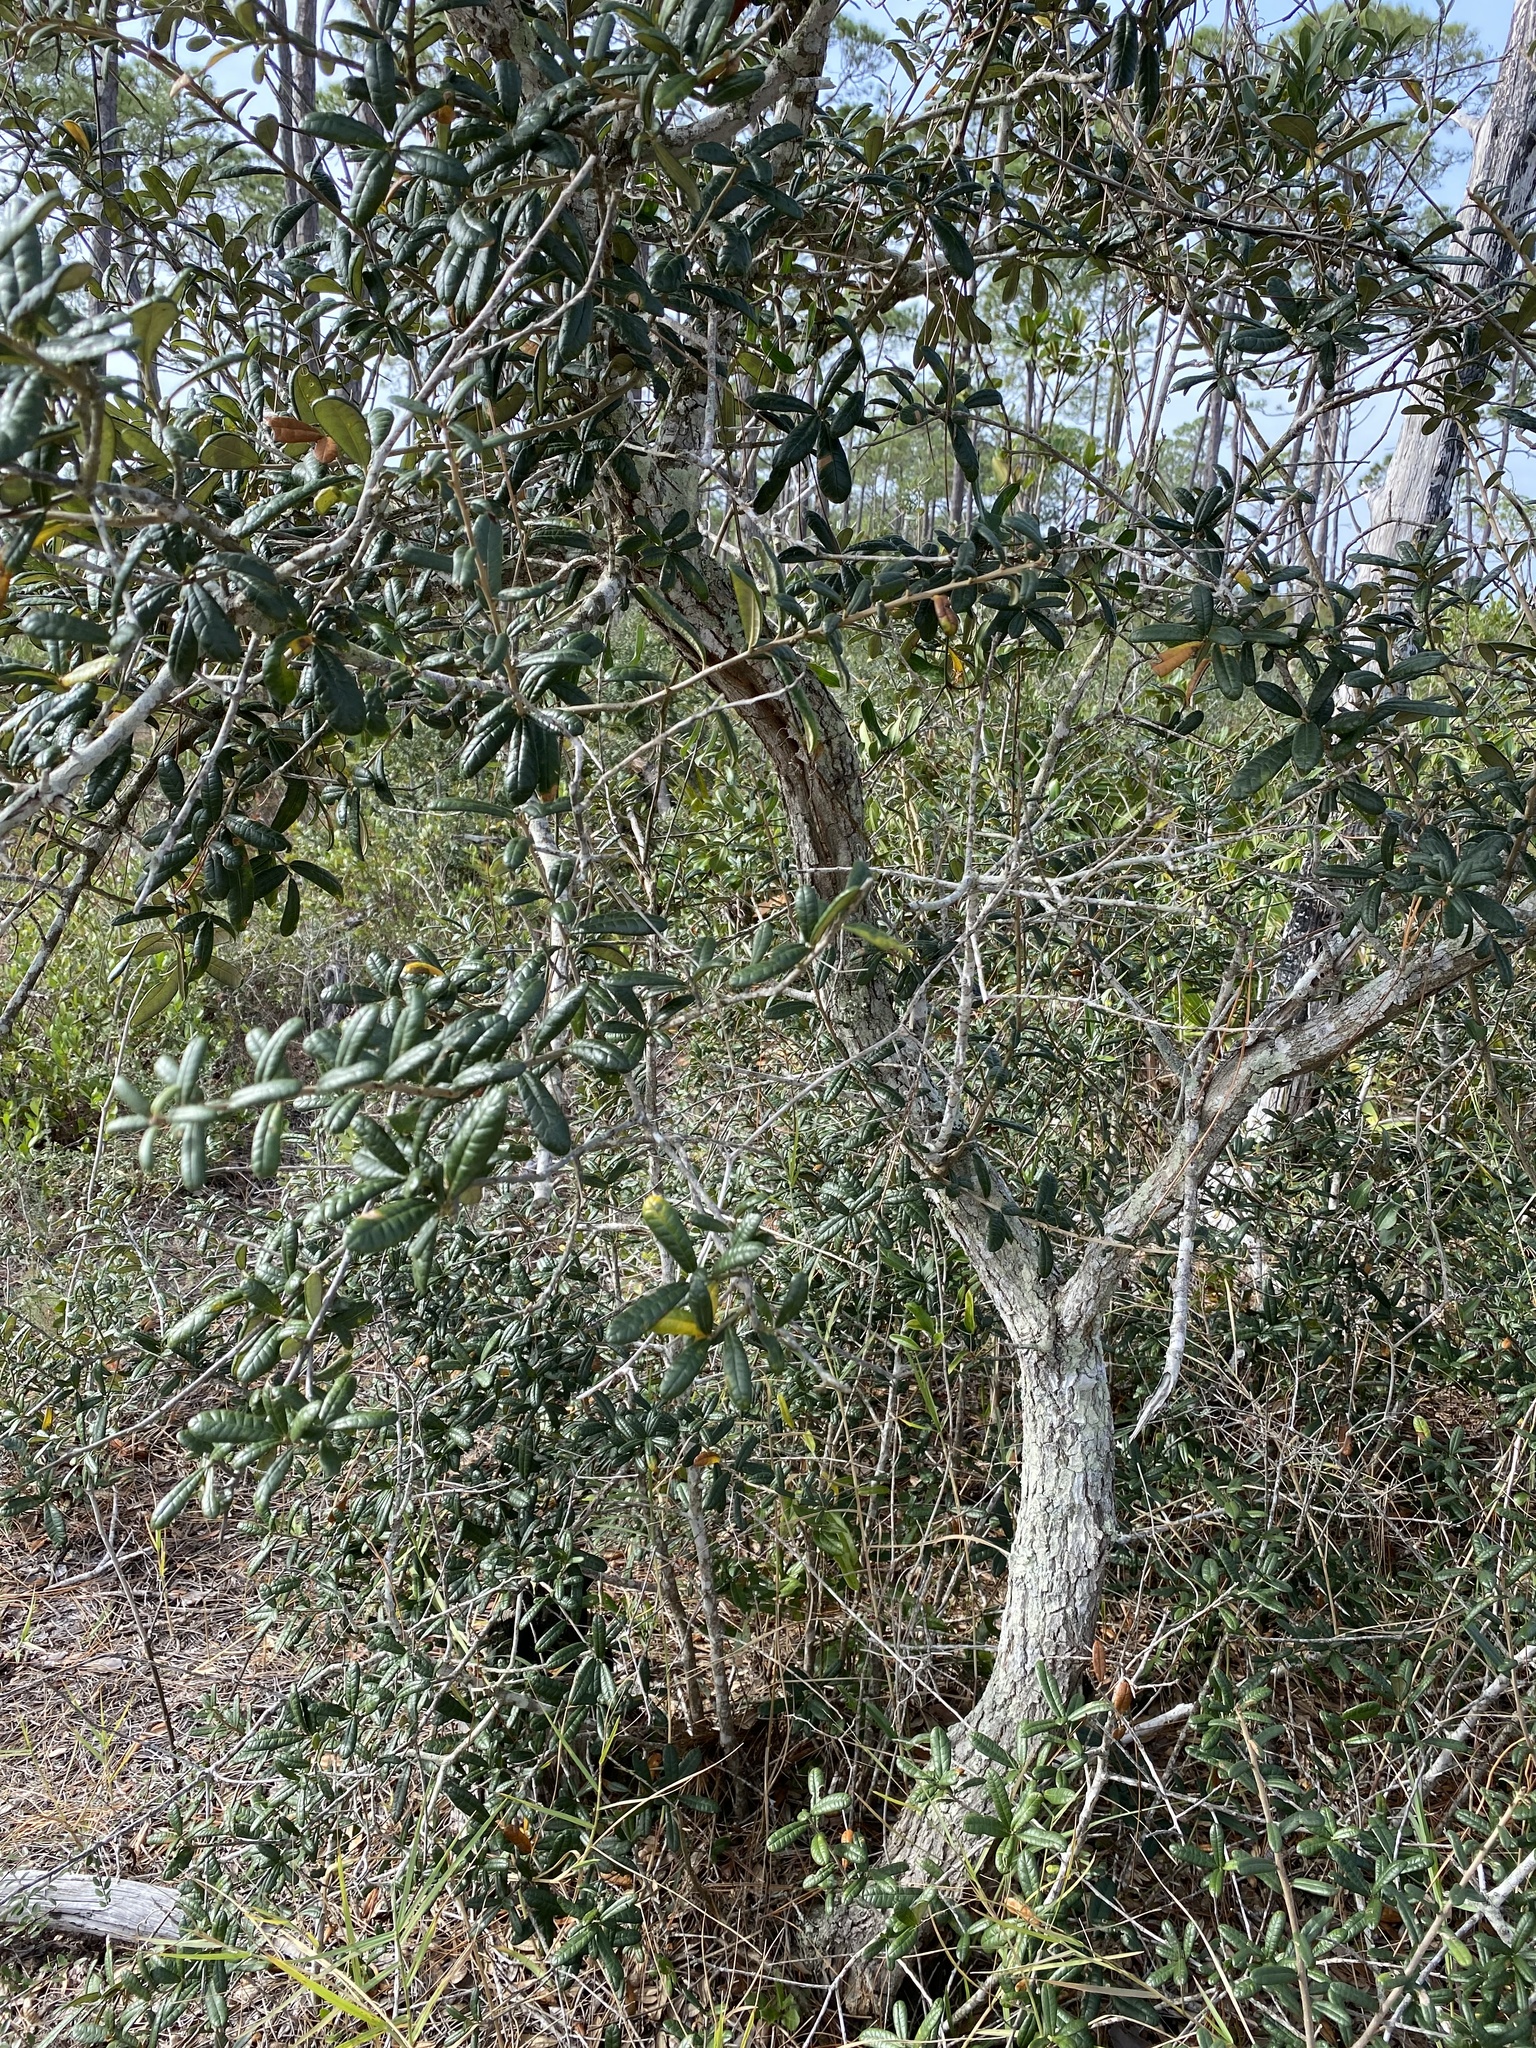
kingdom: Plantae
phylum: Tracheophyta
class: Magnoliopsida
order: Fagales
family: Fagaceae
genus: Quercus
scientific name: Quercus geminata
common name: Sand live oak
